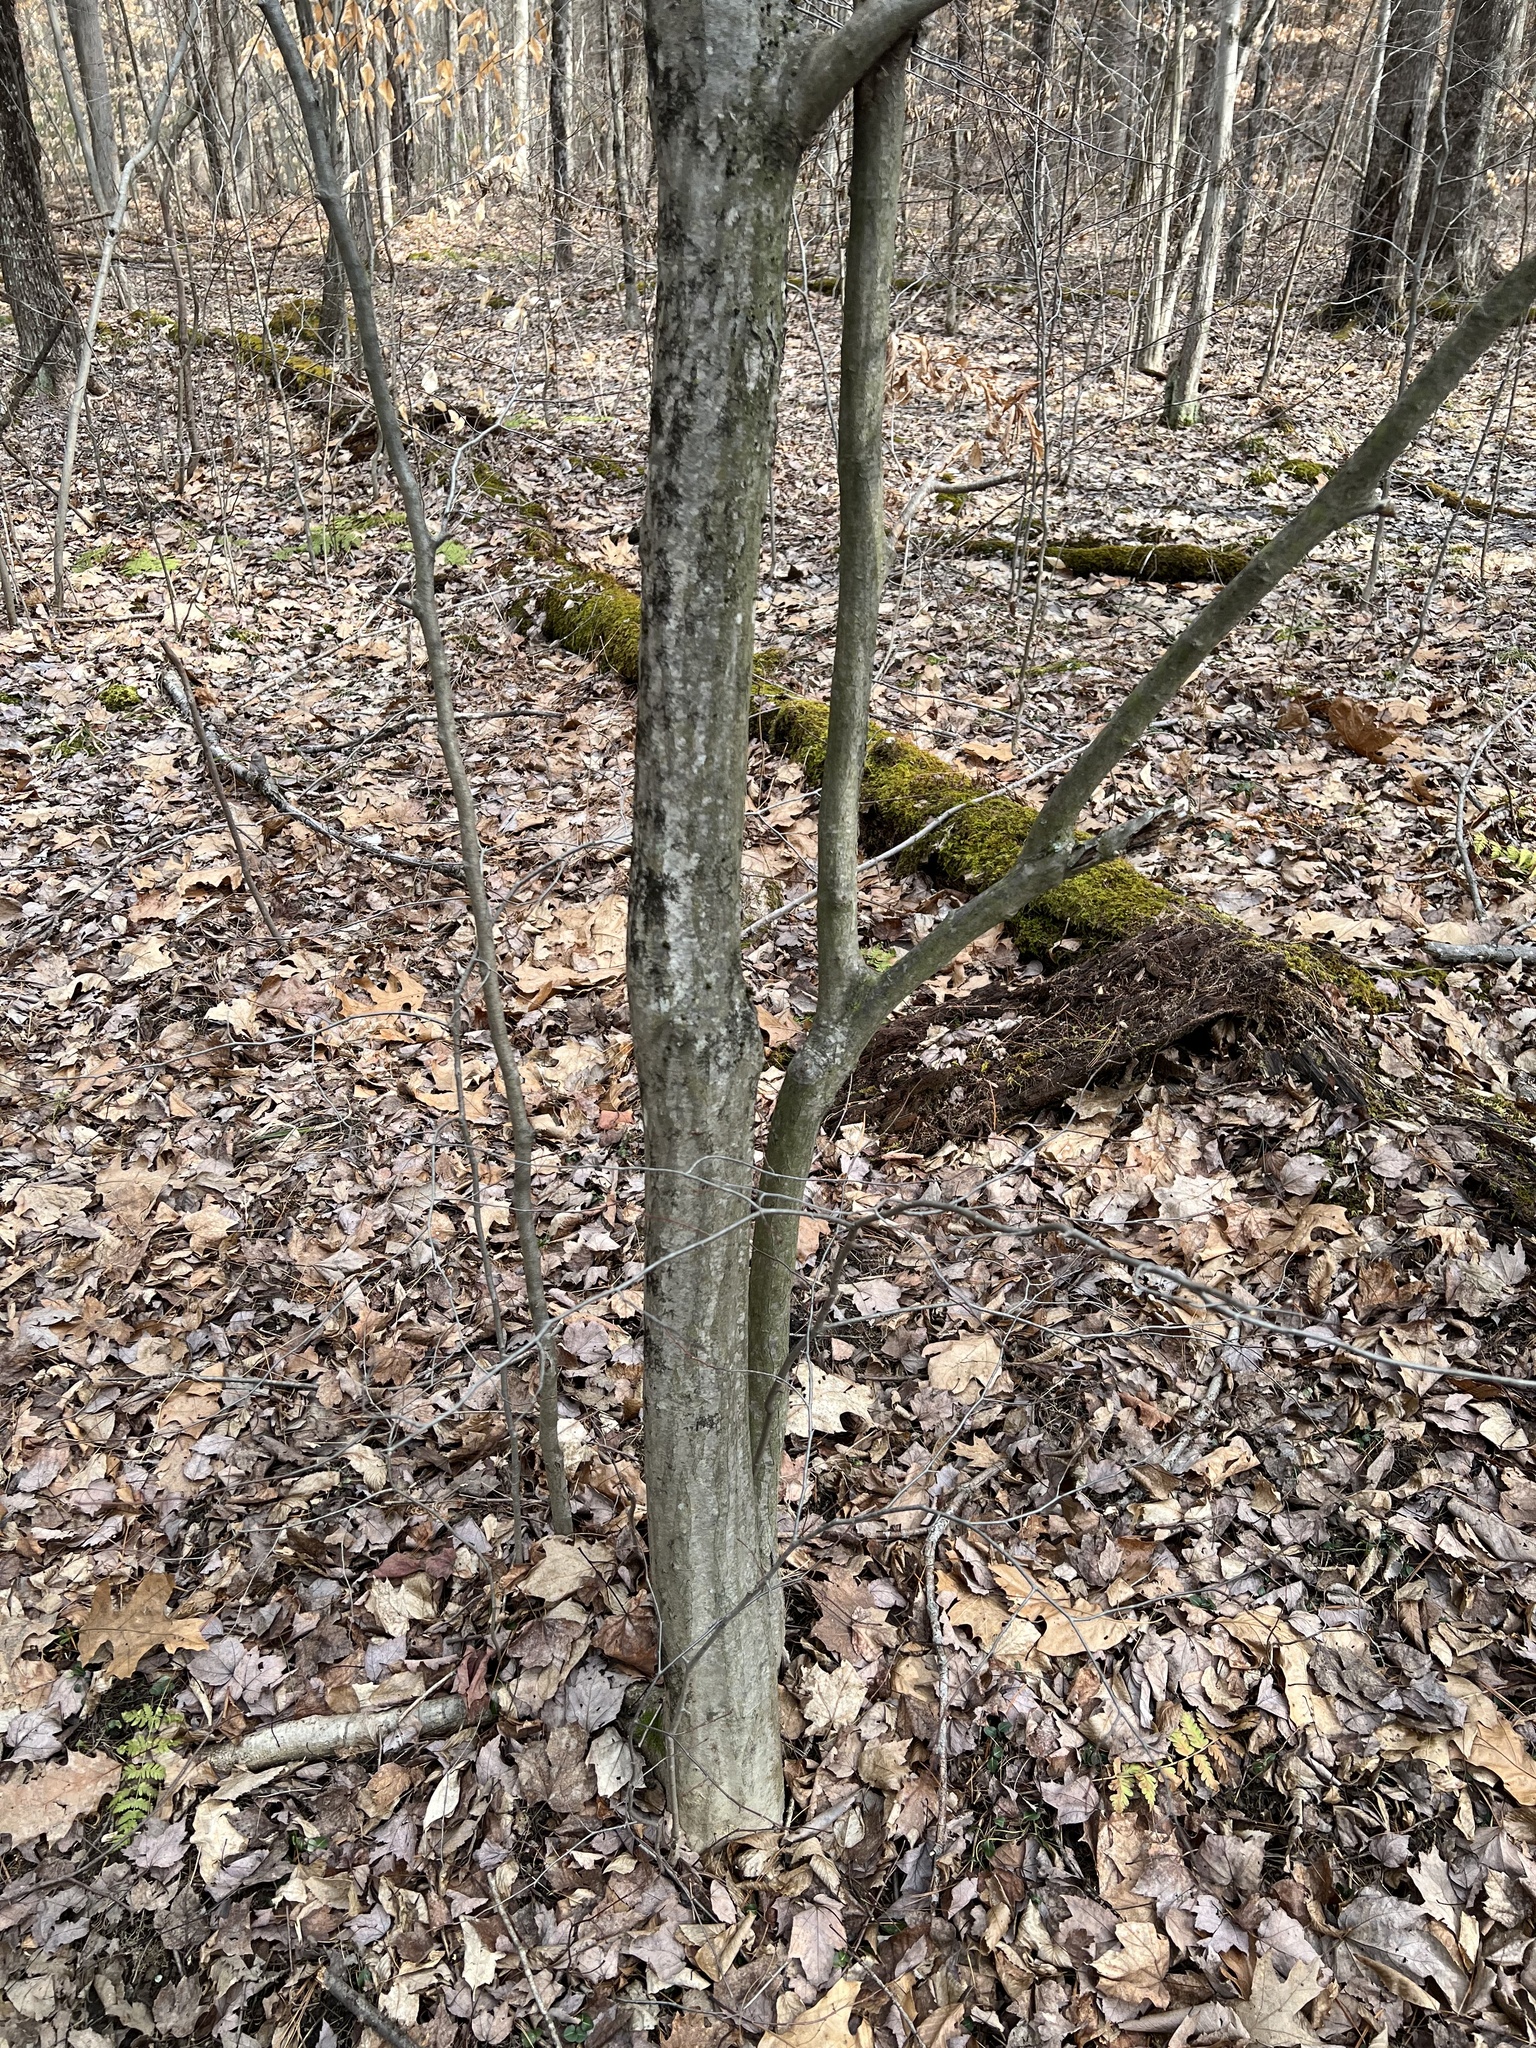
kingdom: Plantae
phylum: Tracheophyta
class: Magnoliopsida
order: Fagales
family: Betulaceae
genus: Carpinus
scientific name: Carpinus caroliniana
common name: American hornbeam
